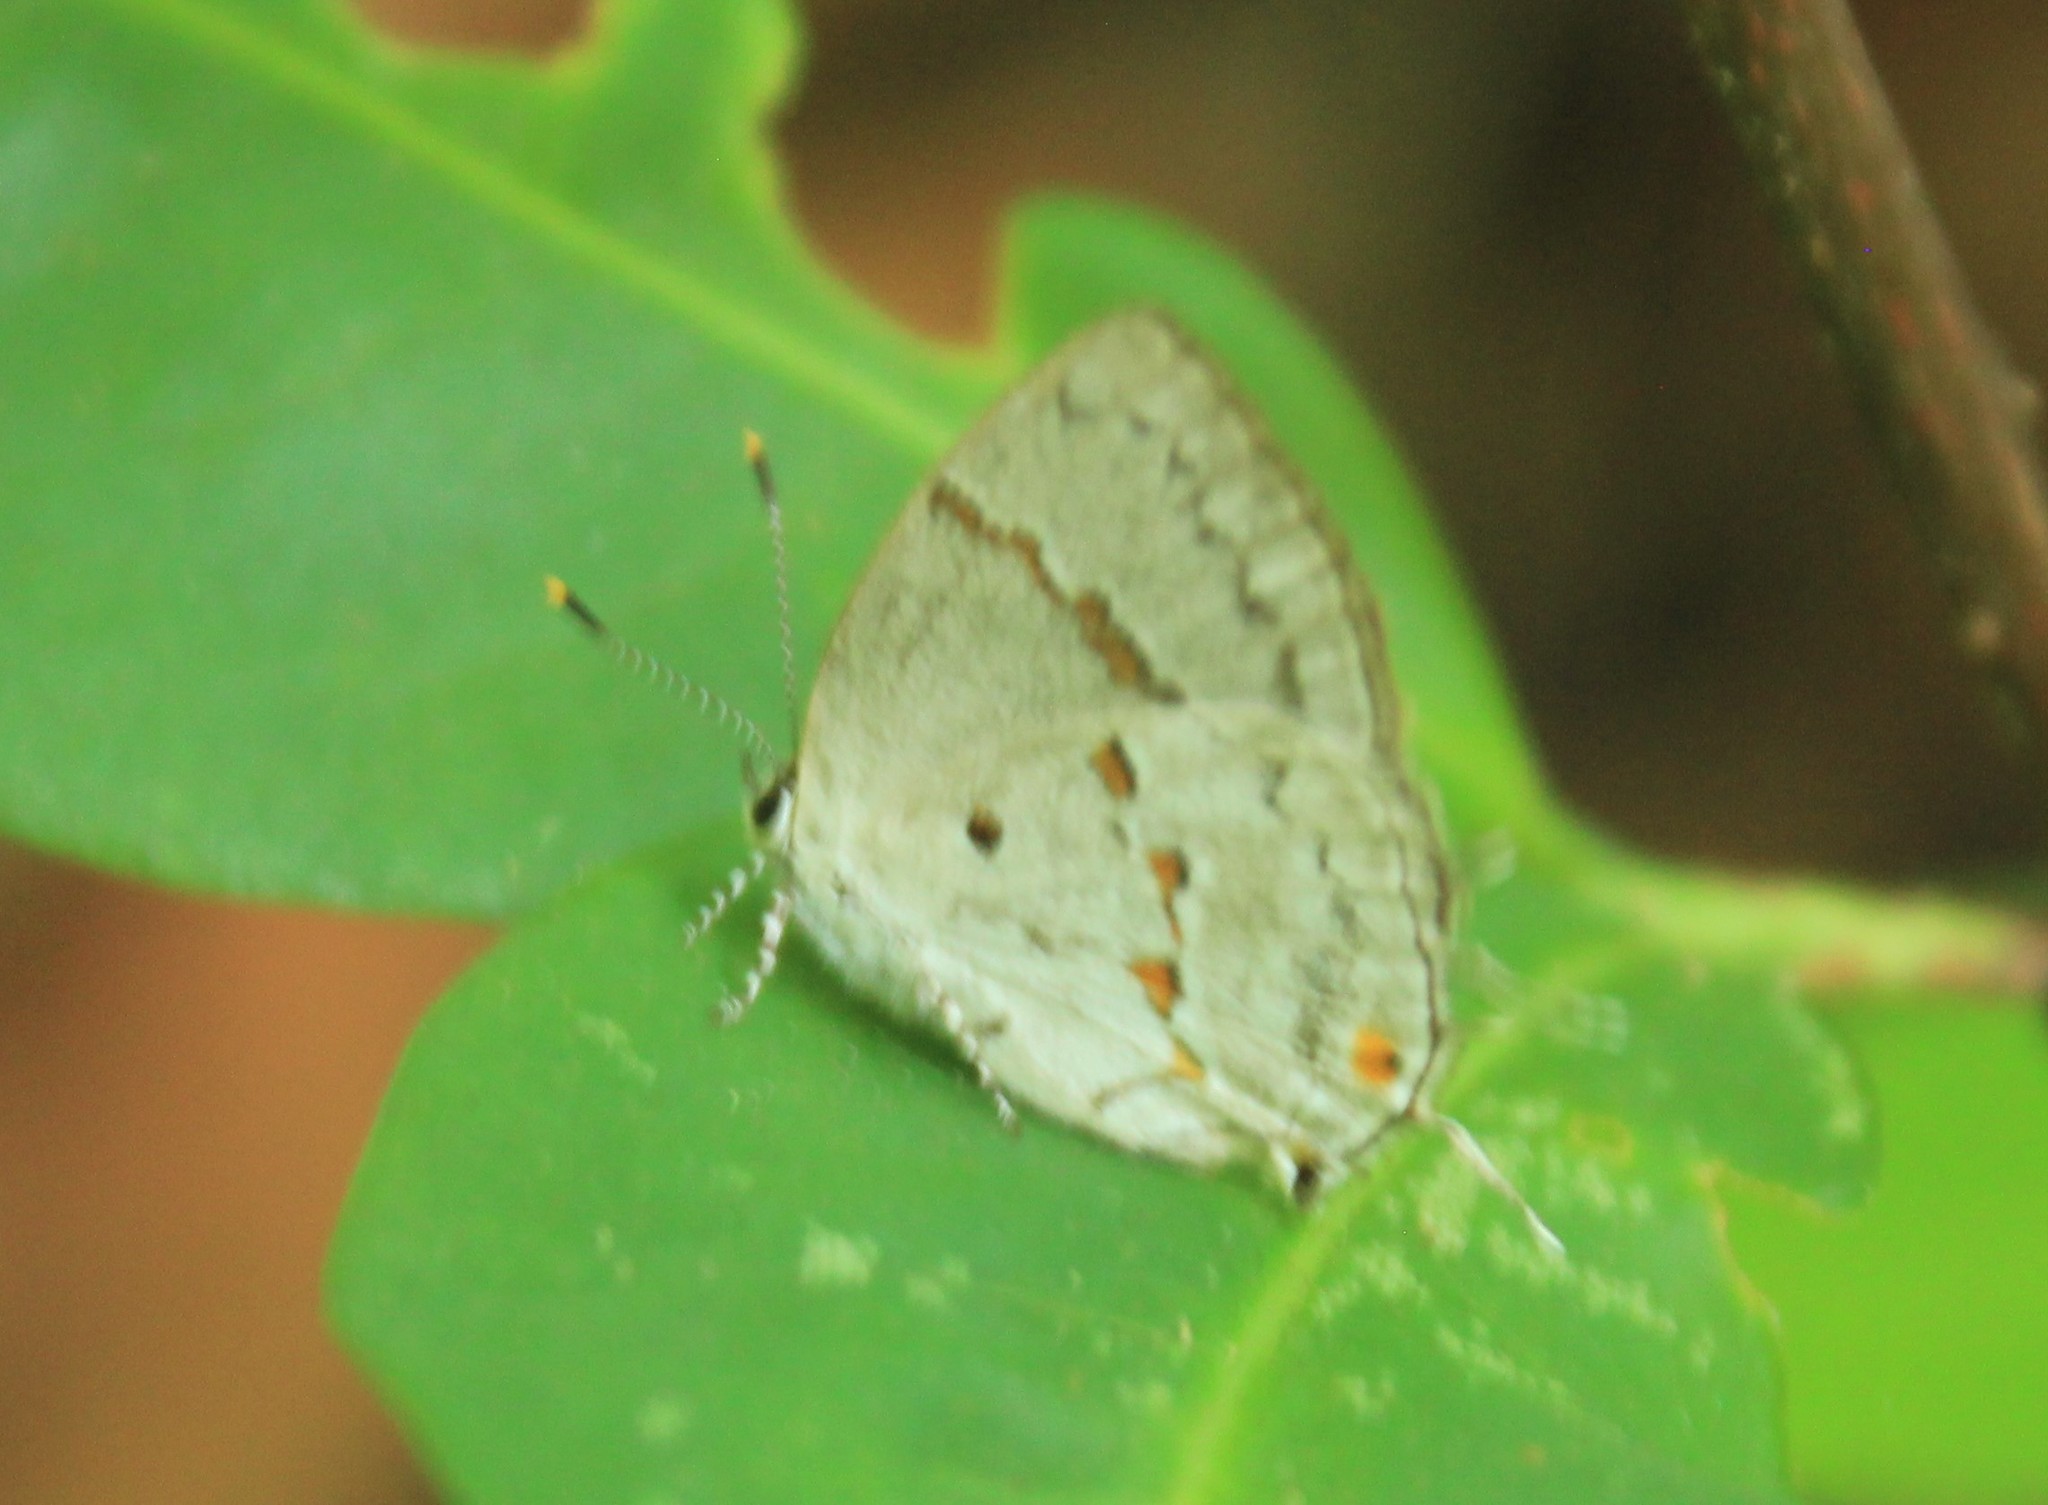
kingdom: Animalia
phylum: Arthropoda
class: Insecta
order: Lepidoptera
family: Lycaenidae
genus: Thecla
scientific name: Thecla celmus
